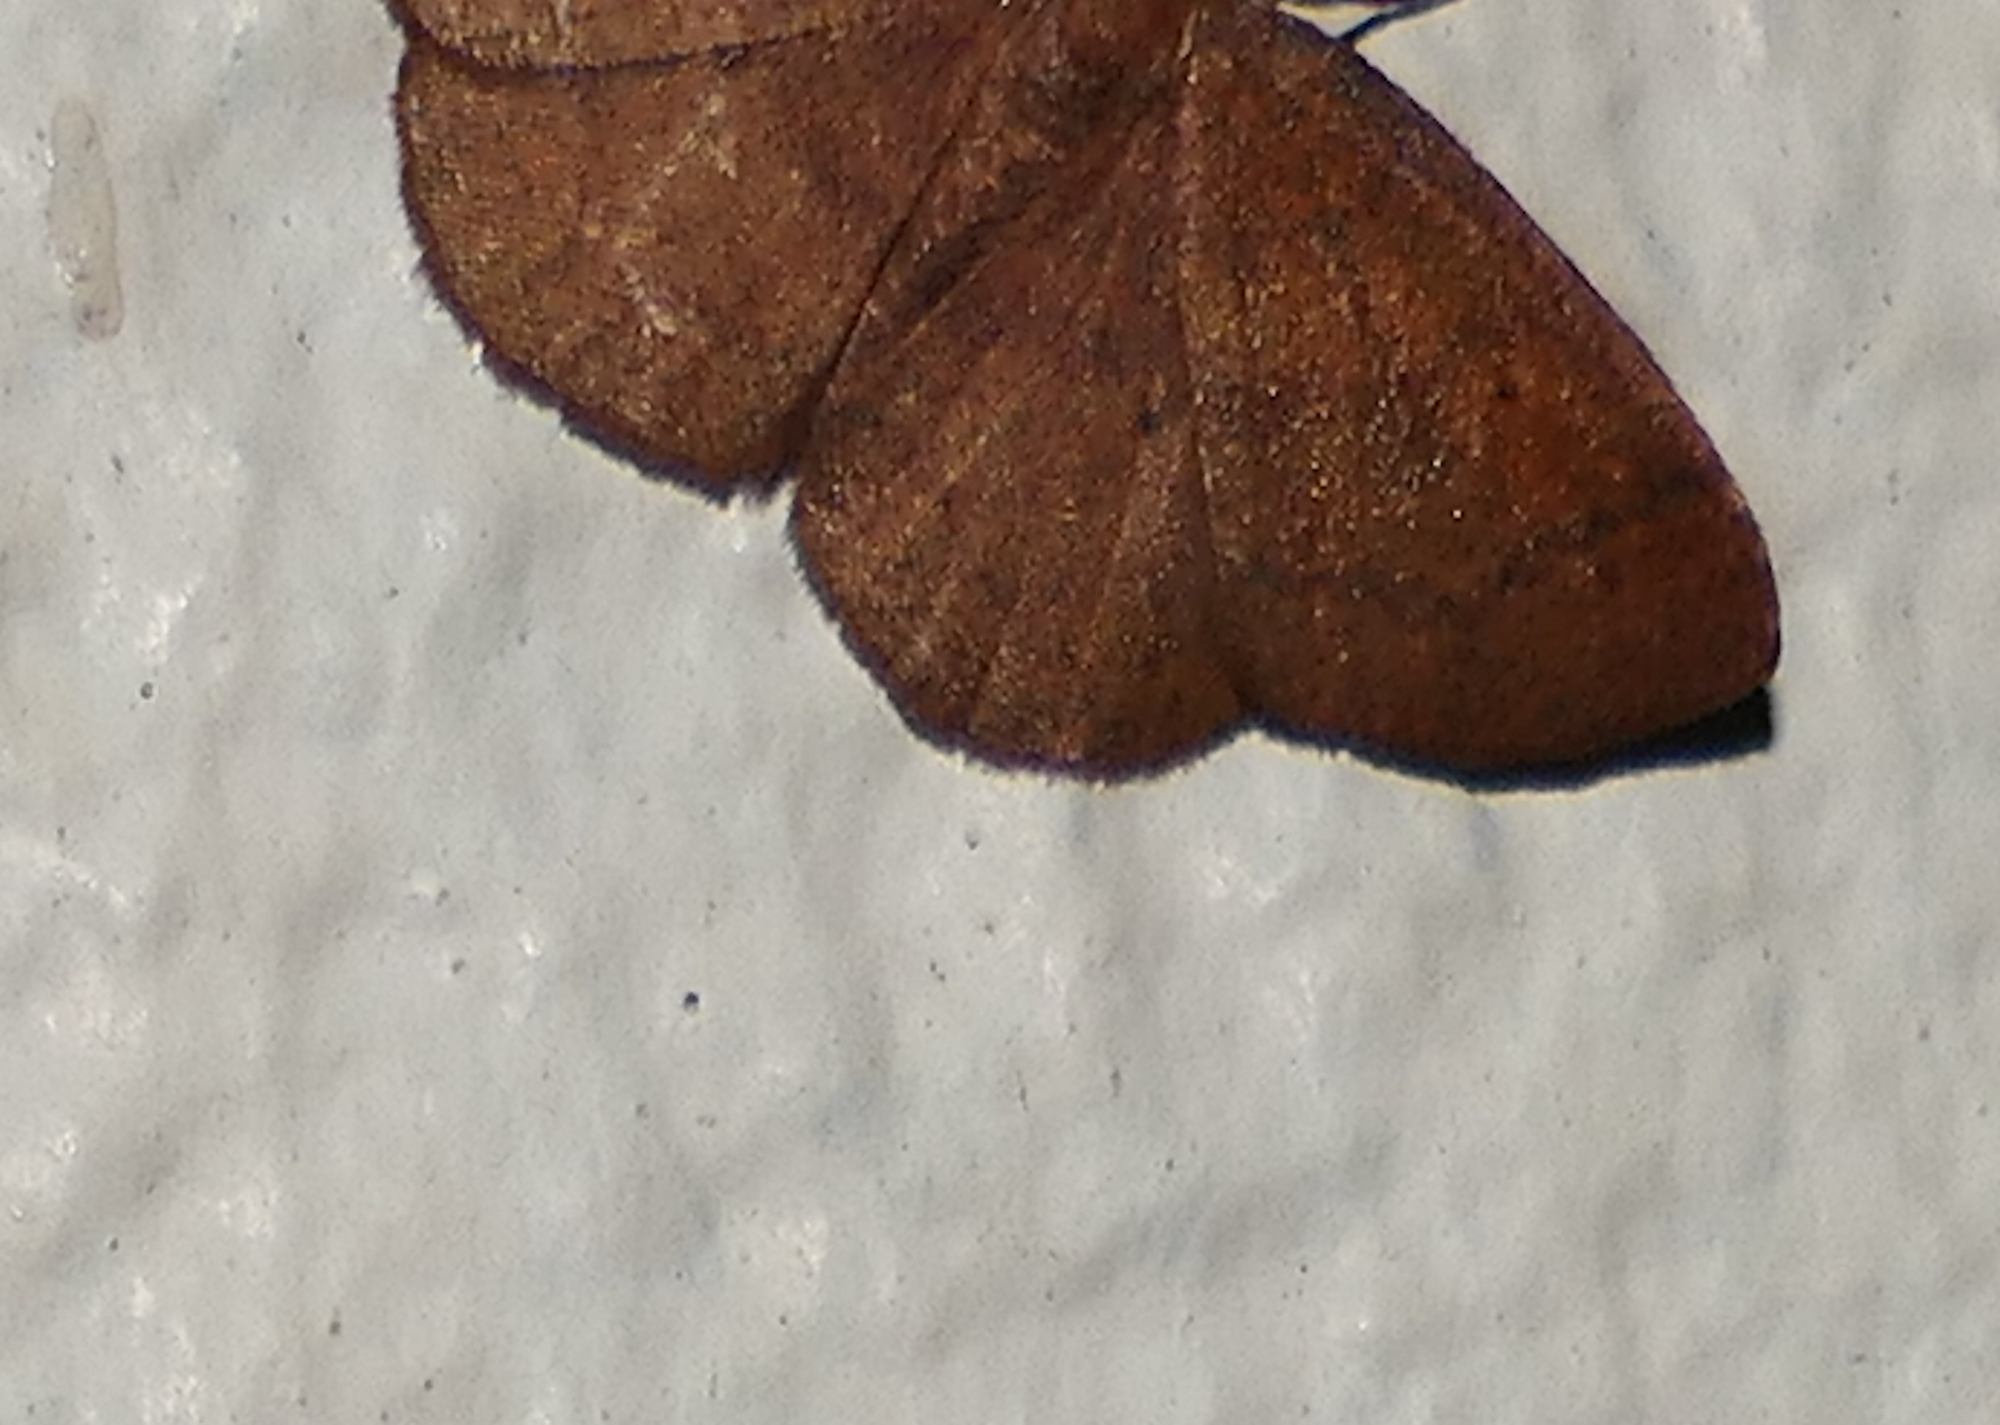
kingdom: Animalia
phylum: Arthropoda
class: Insecta
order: Lepidoptera
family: Geometridae
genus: Ilexia
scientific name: Ilexia intractata
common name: Black-dotted ruddy moth
